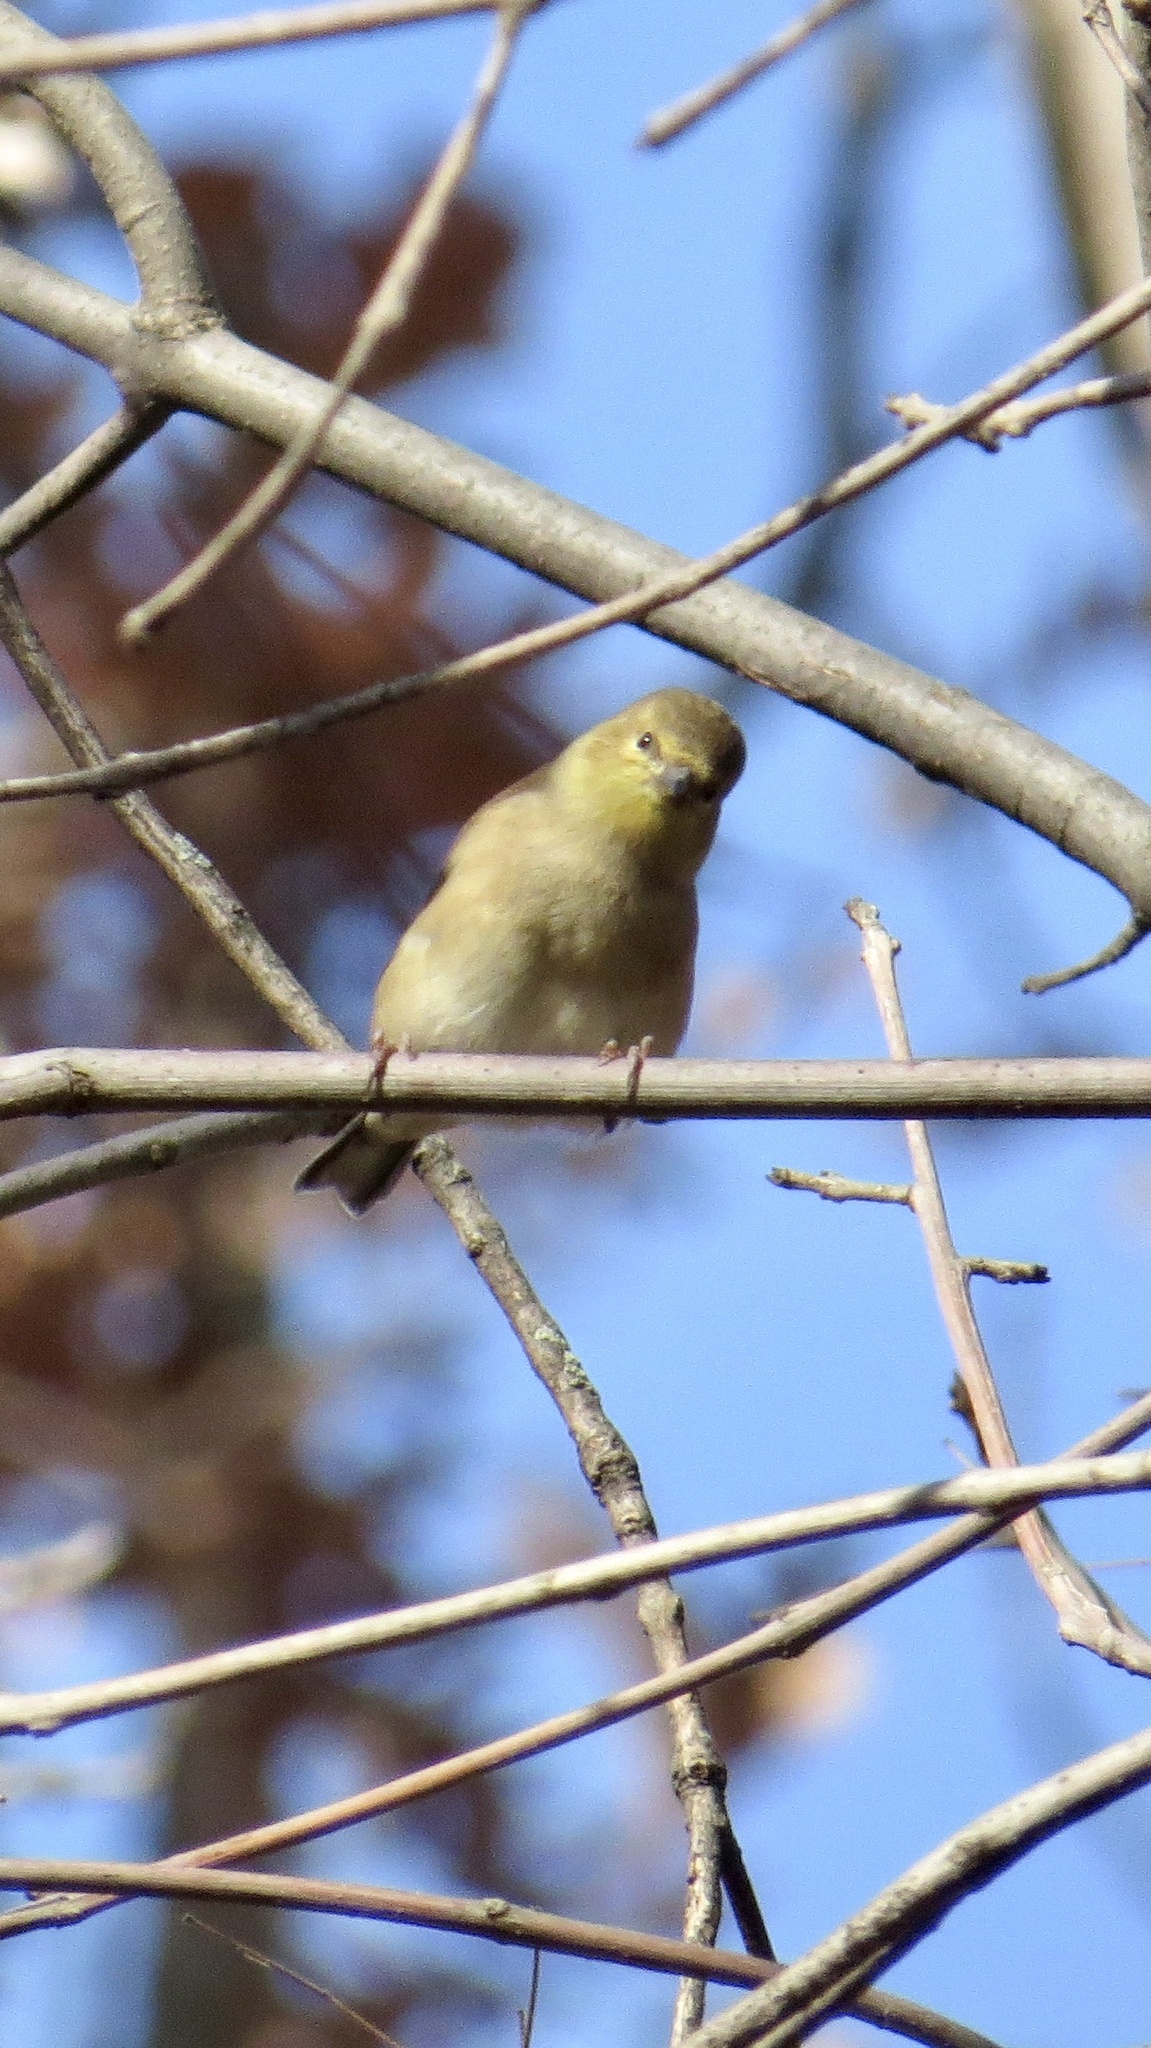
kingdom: Animalia
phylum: Chordata
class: Aves
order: Passeriformes
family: Fringillidae
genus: Spinus
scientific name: Spinus tristis
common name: American goldfinch
